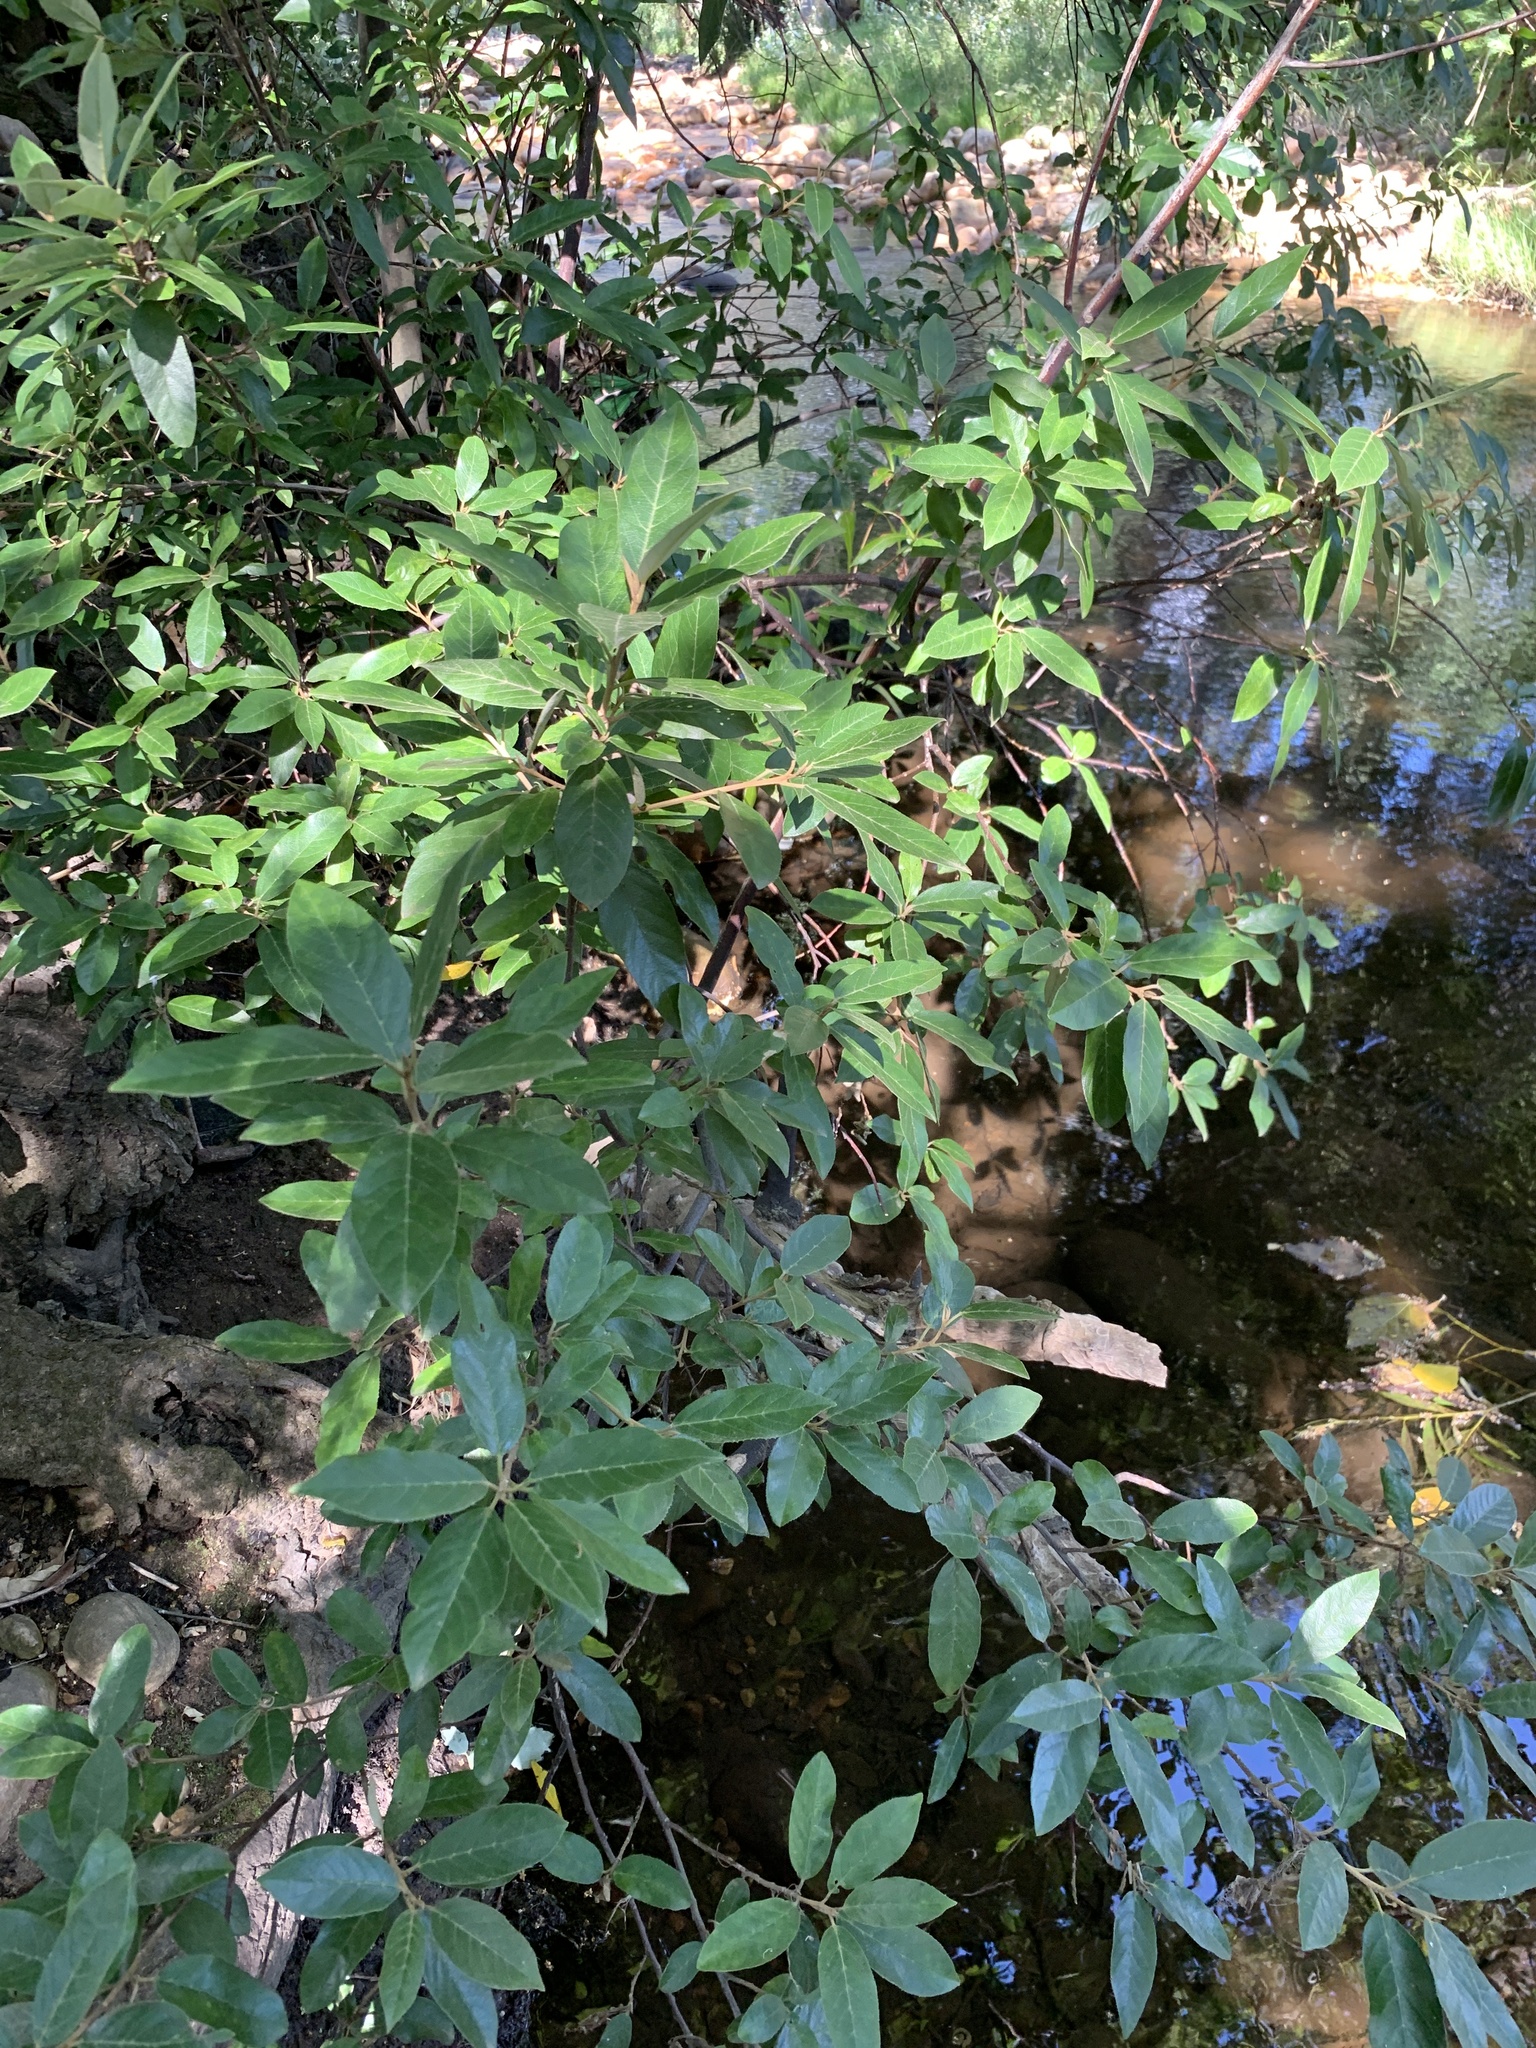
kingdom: Plantae
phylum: Tracheophyta
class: Magnoliopsida
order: Malpighiales
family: Achariaceae
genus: Kiggelaria
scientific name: Kiggelaria africana
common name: Wild peach
